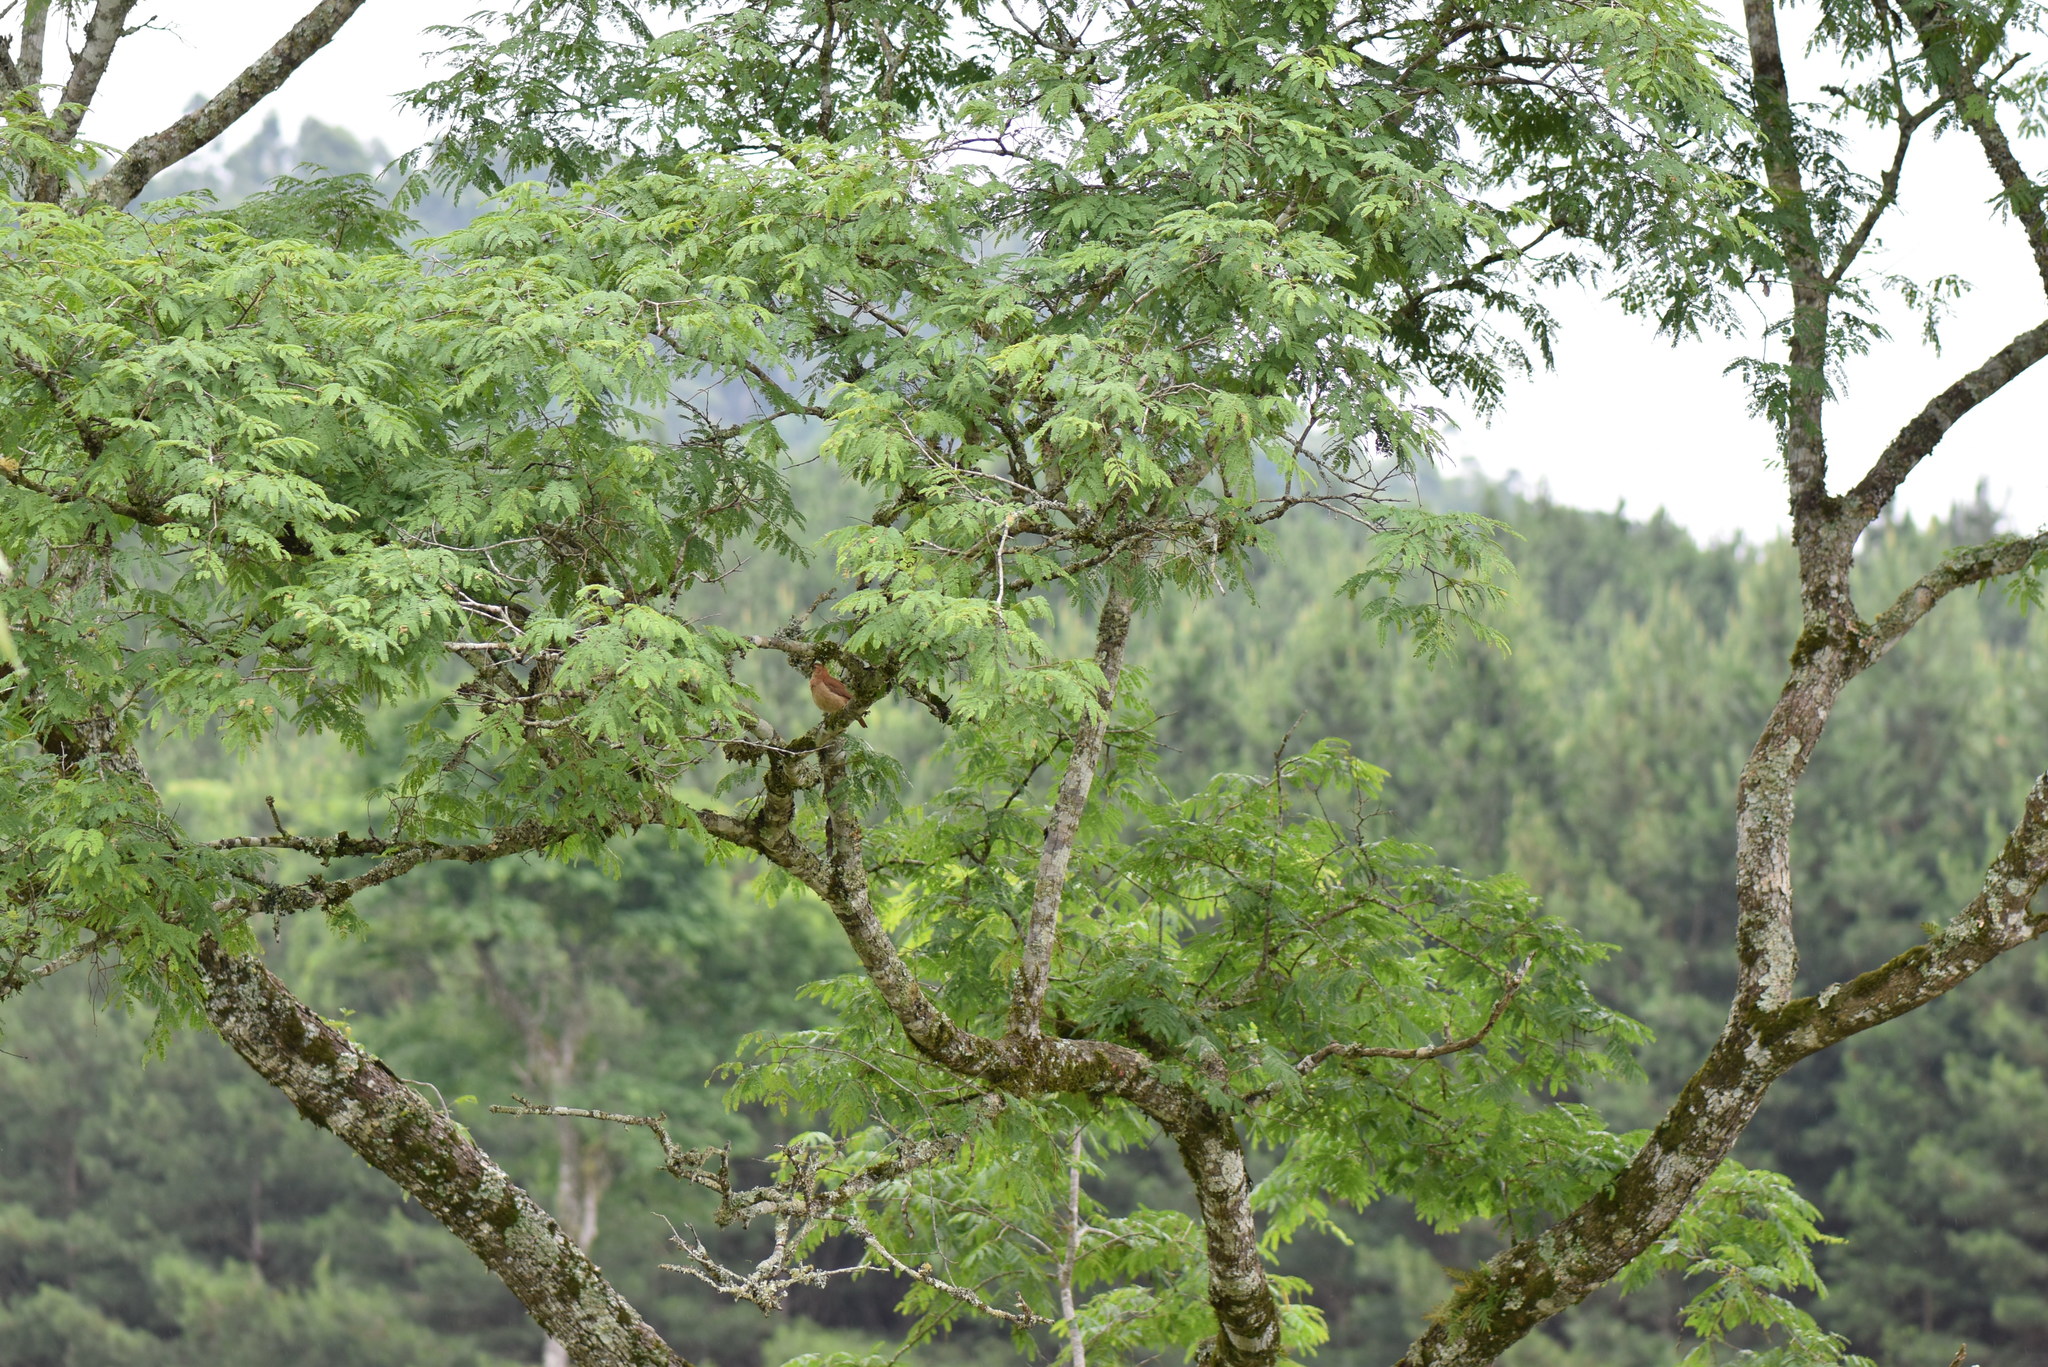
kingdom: Animalia
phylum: Chordata
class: Aves
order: Passeriformes
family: Furnariidae
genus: Furnarius
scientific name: Furnarius rufus
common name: Rufous hornero
